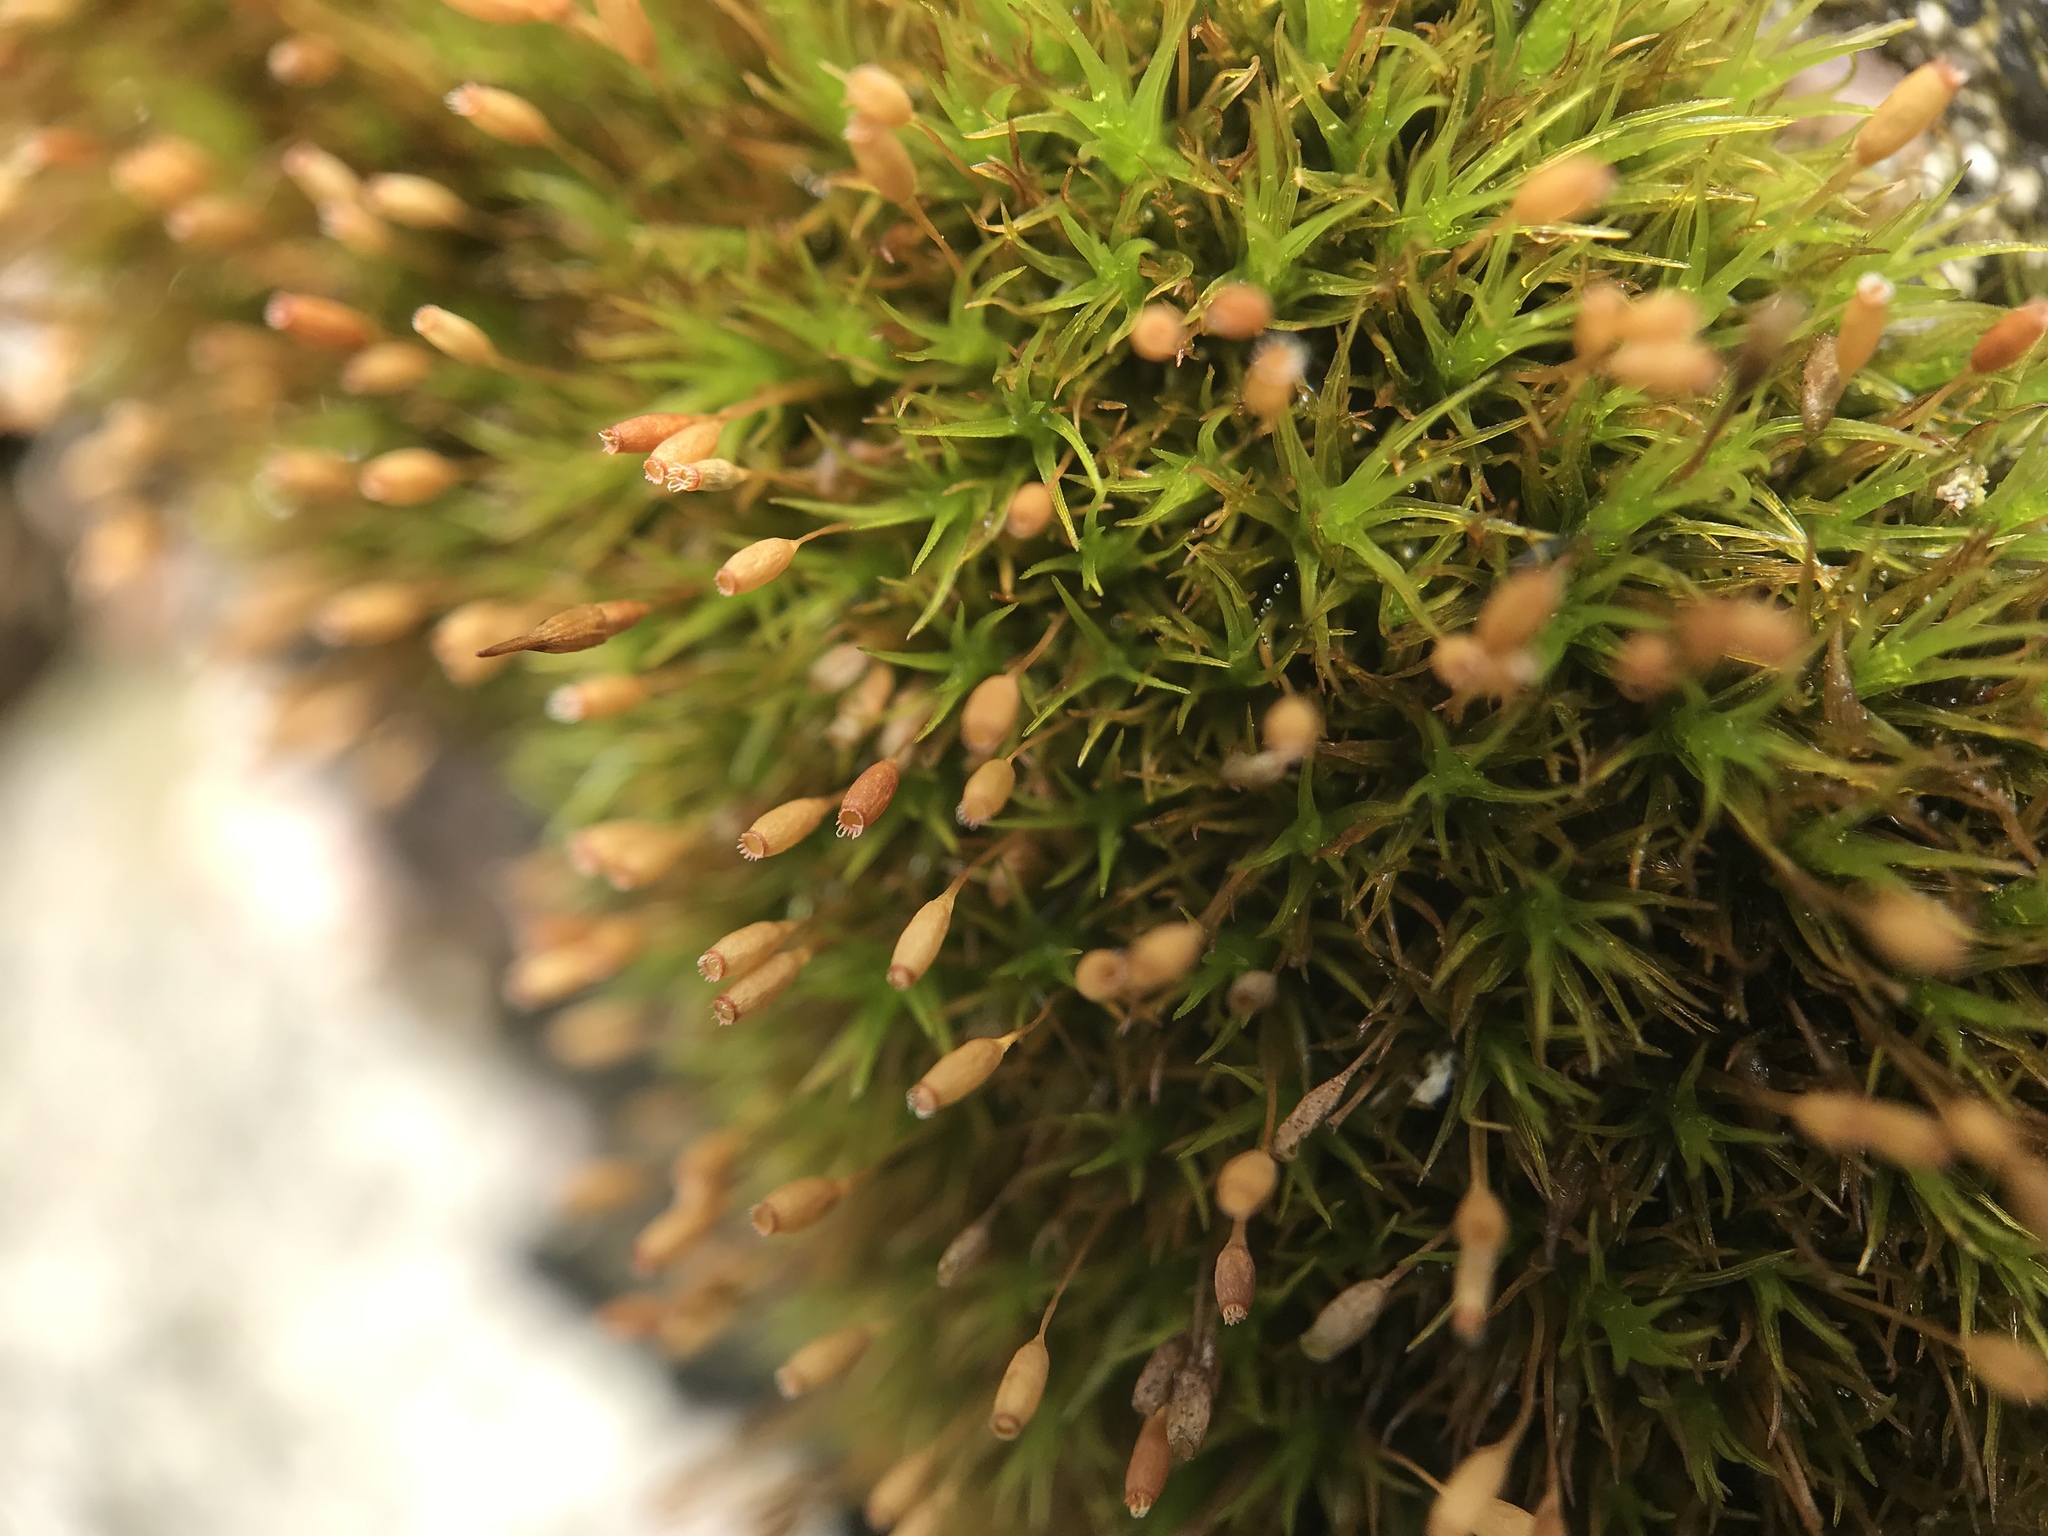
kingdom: Plantae
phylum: Bryophyta
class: Bryopsida
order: Grimmiales
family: Ptychomitriaceae
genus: Ptychomitrium
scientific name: Ptychomitrium polyphyllum
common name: Greater pincushion
